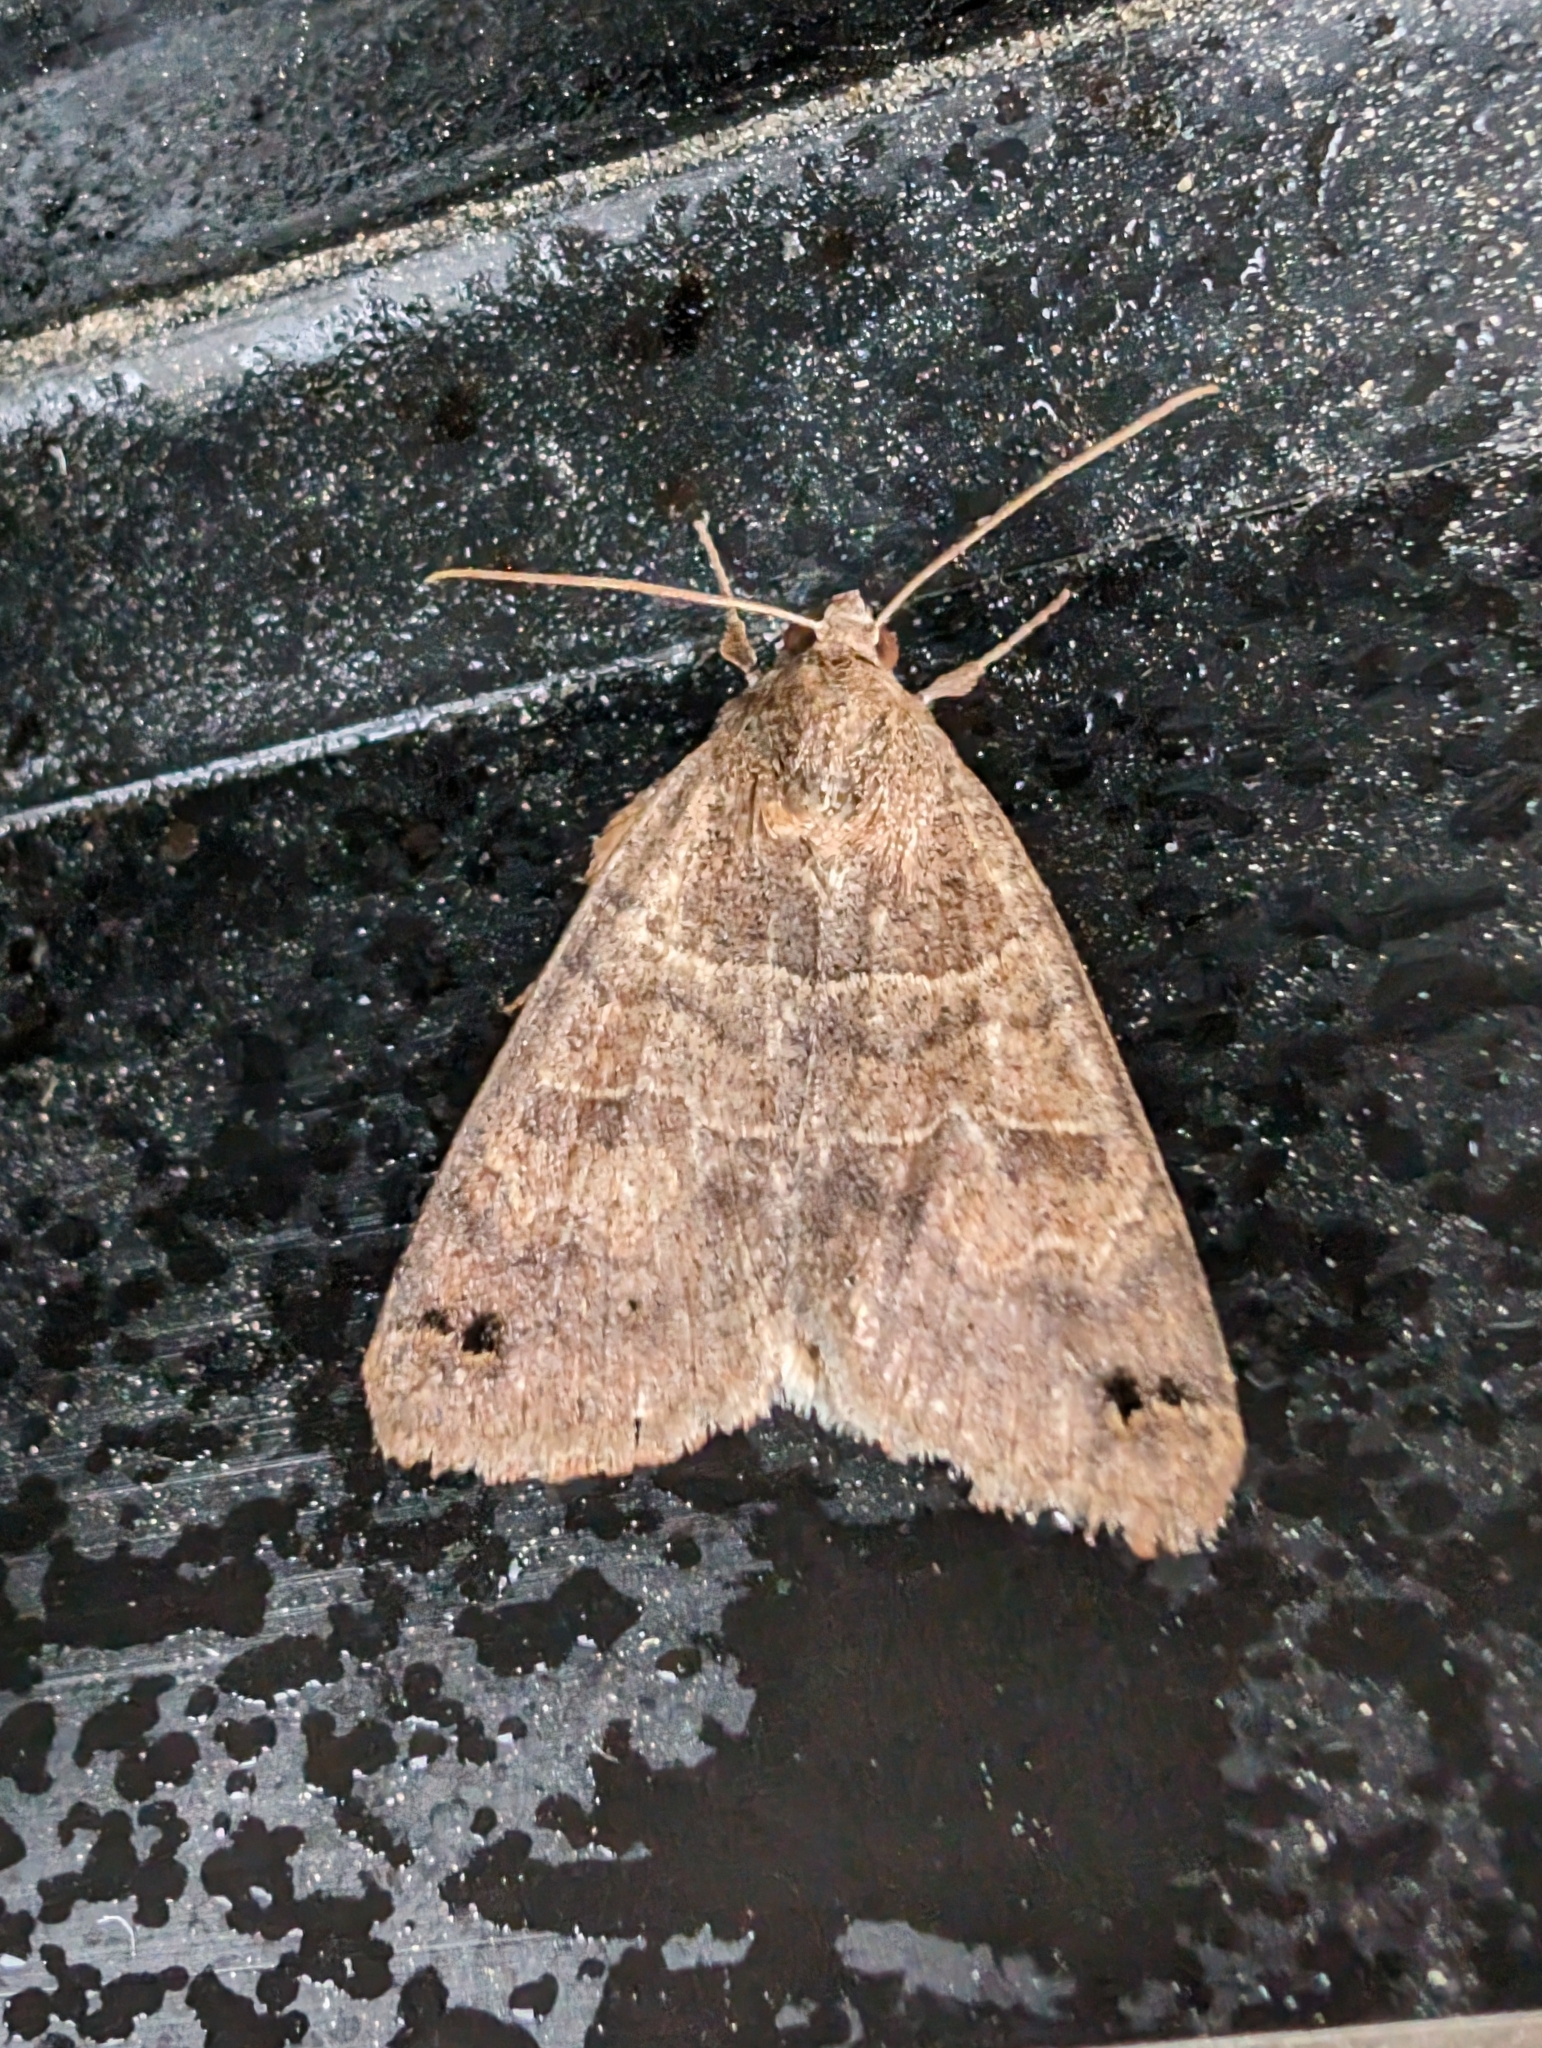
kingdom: Animalia
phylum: Arthropoda
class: Insecta
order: Lepidoptera
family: Erebidae
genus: Cissusa
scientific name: Cissusa spadix
